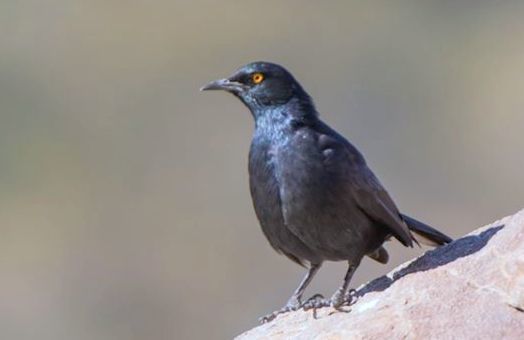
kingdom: Animalia
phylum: Chordata
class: Aves
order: Passeriformes
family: Sturnidae
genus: Onychognathus
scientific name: Onychognathus nabouroup
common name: Pale-winged starling
